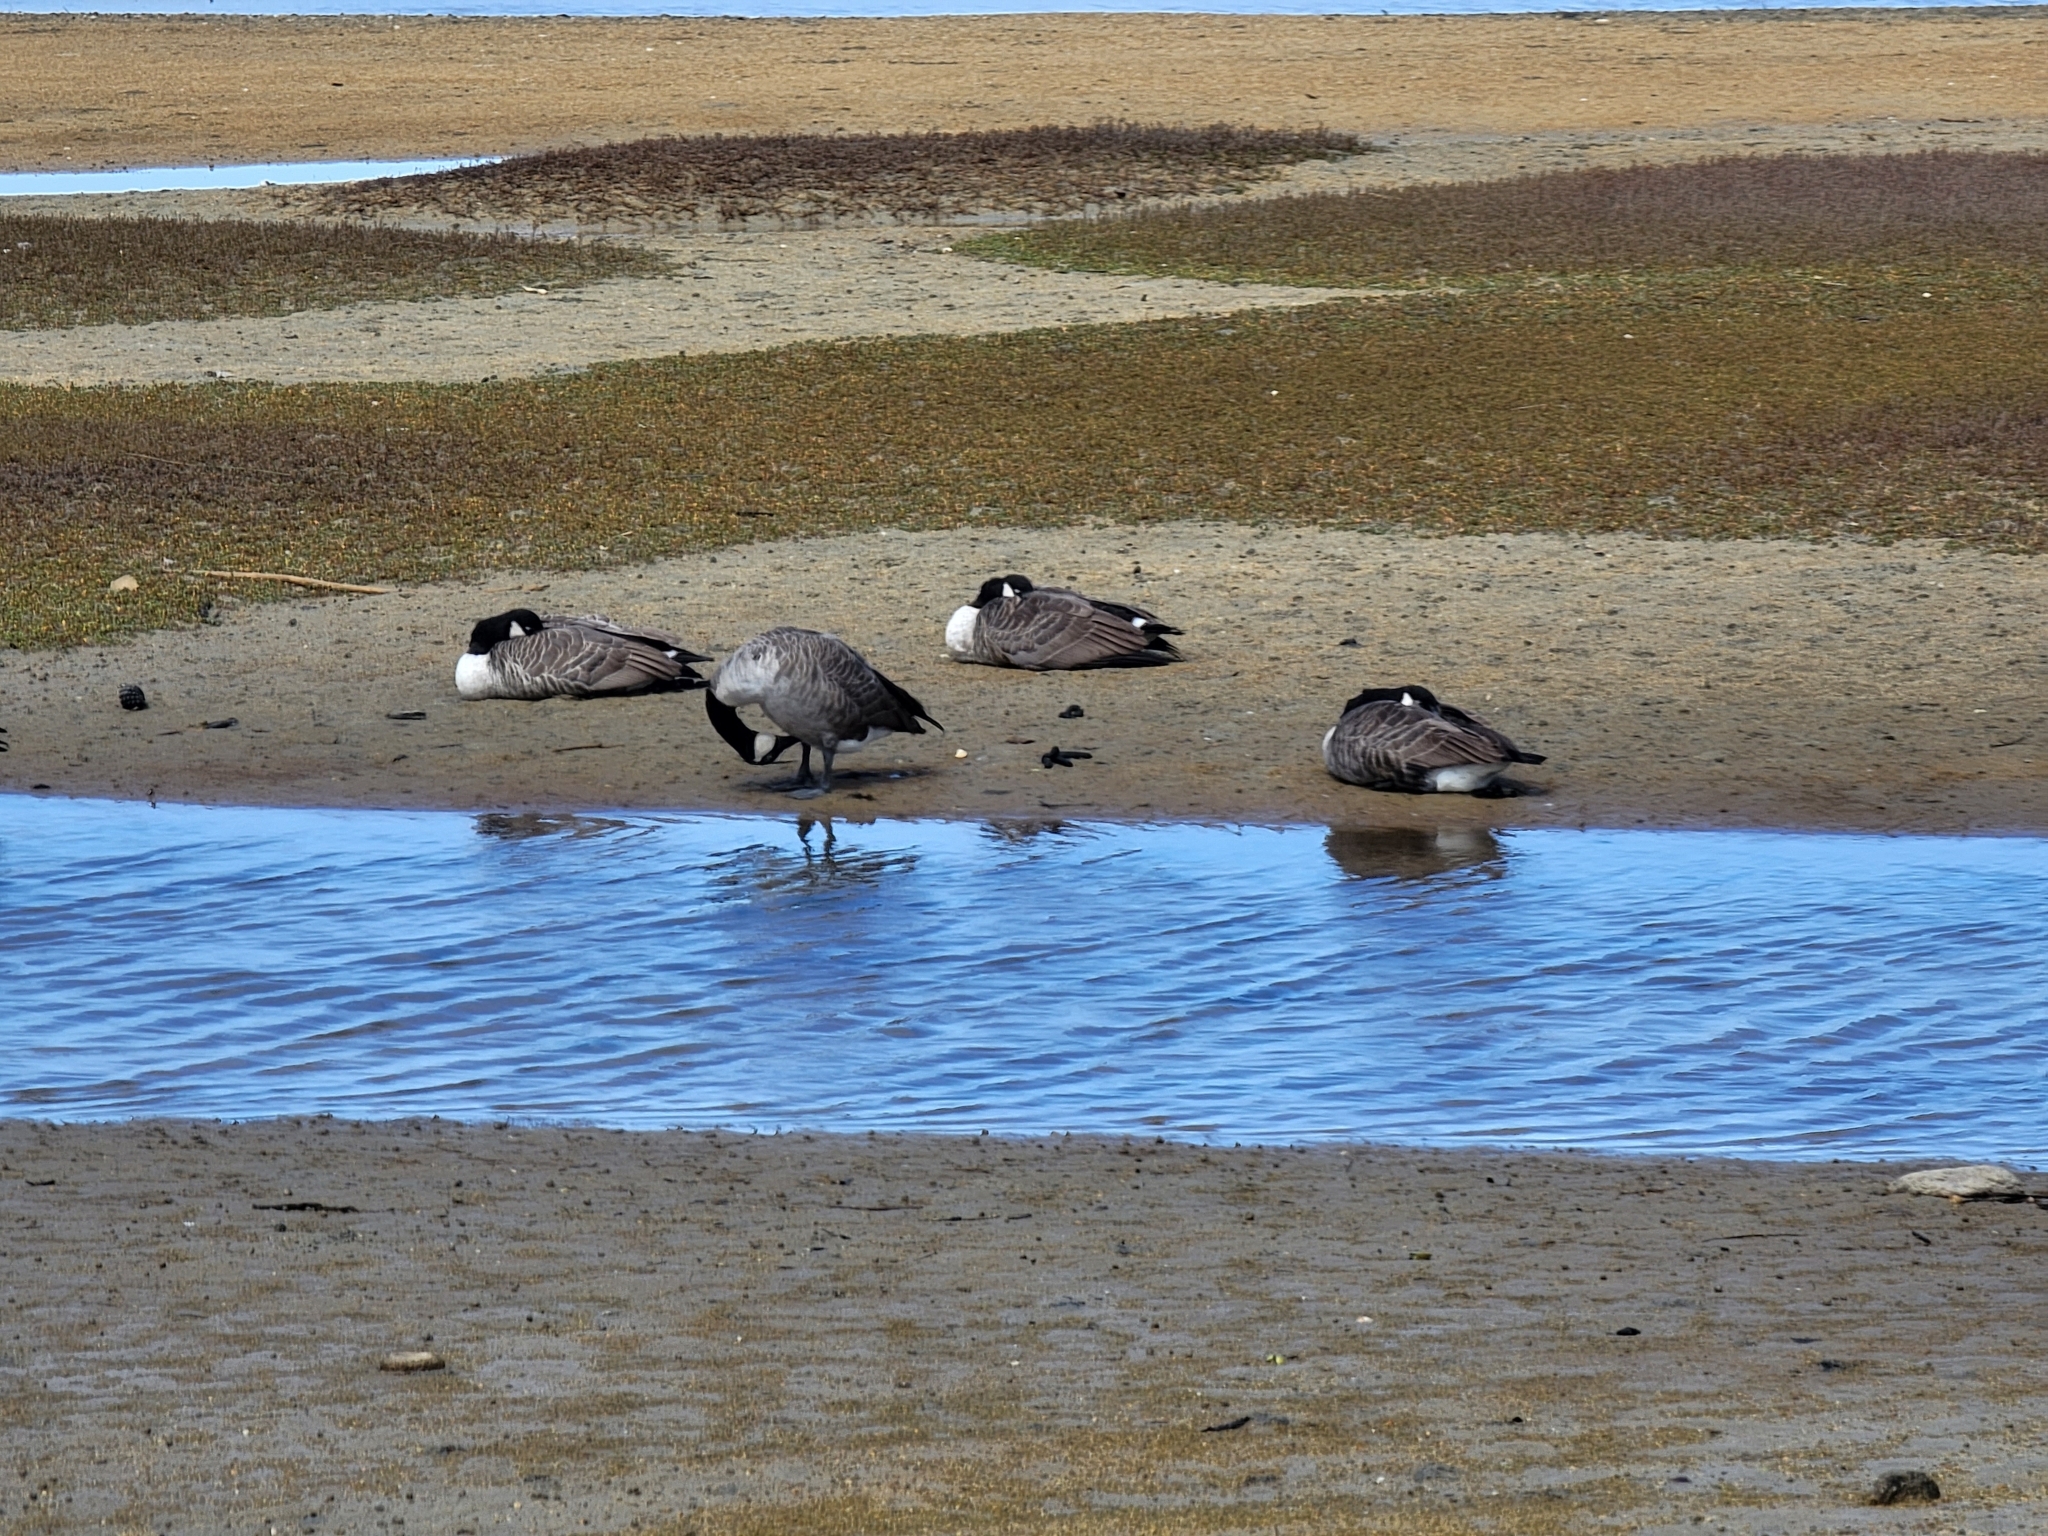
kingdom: Animalia
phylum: Chordata
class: Aves
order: Anseriformes
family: Anatidae
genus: Branta
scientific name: Branta canadensis
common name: Canada goose
